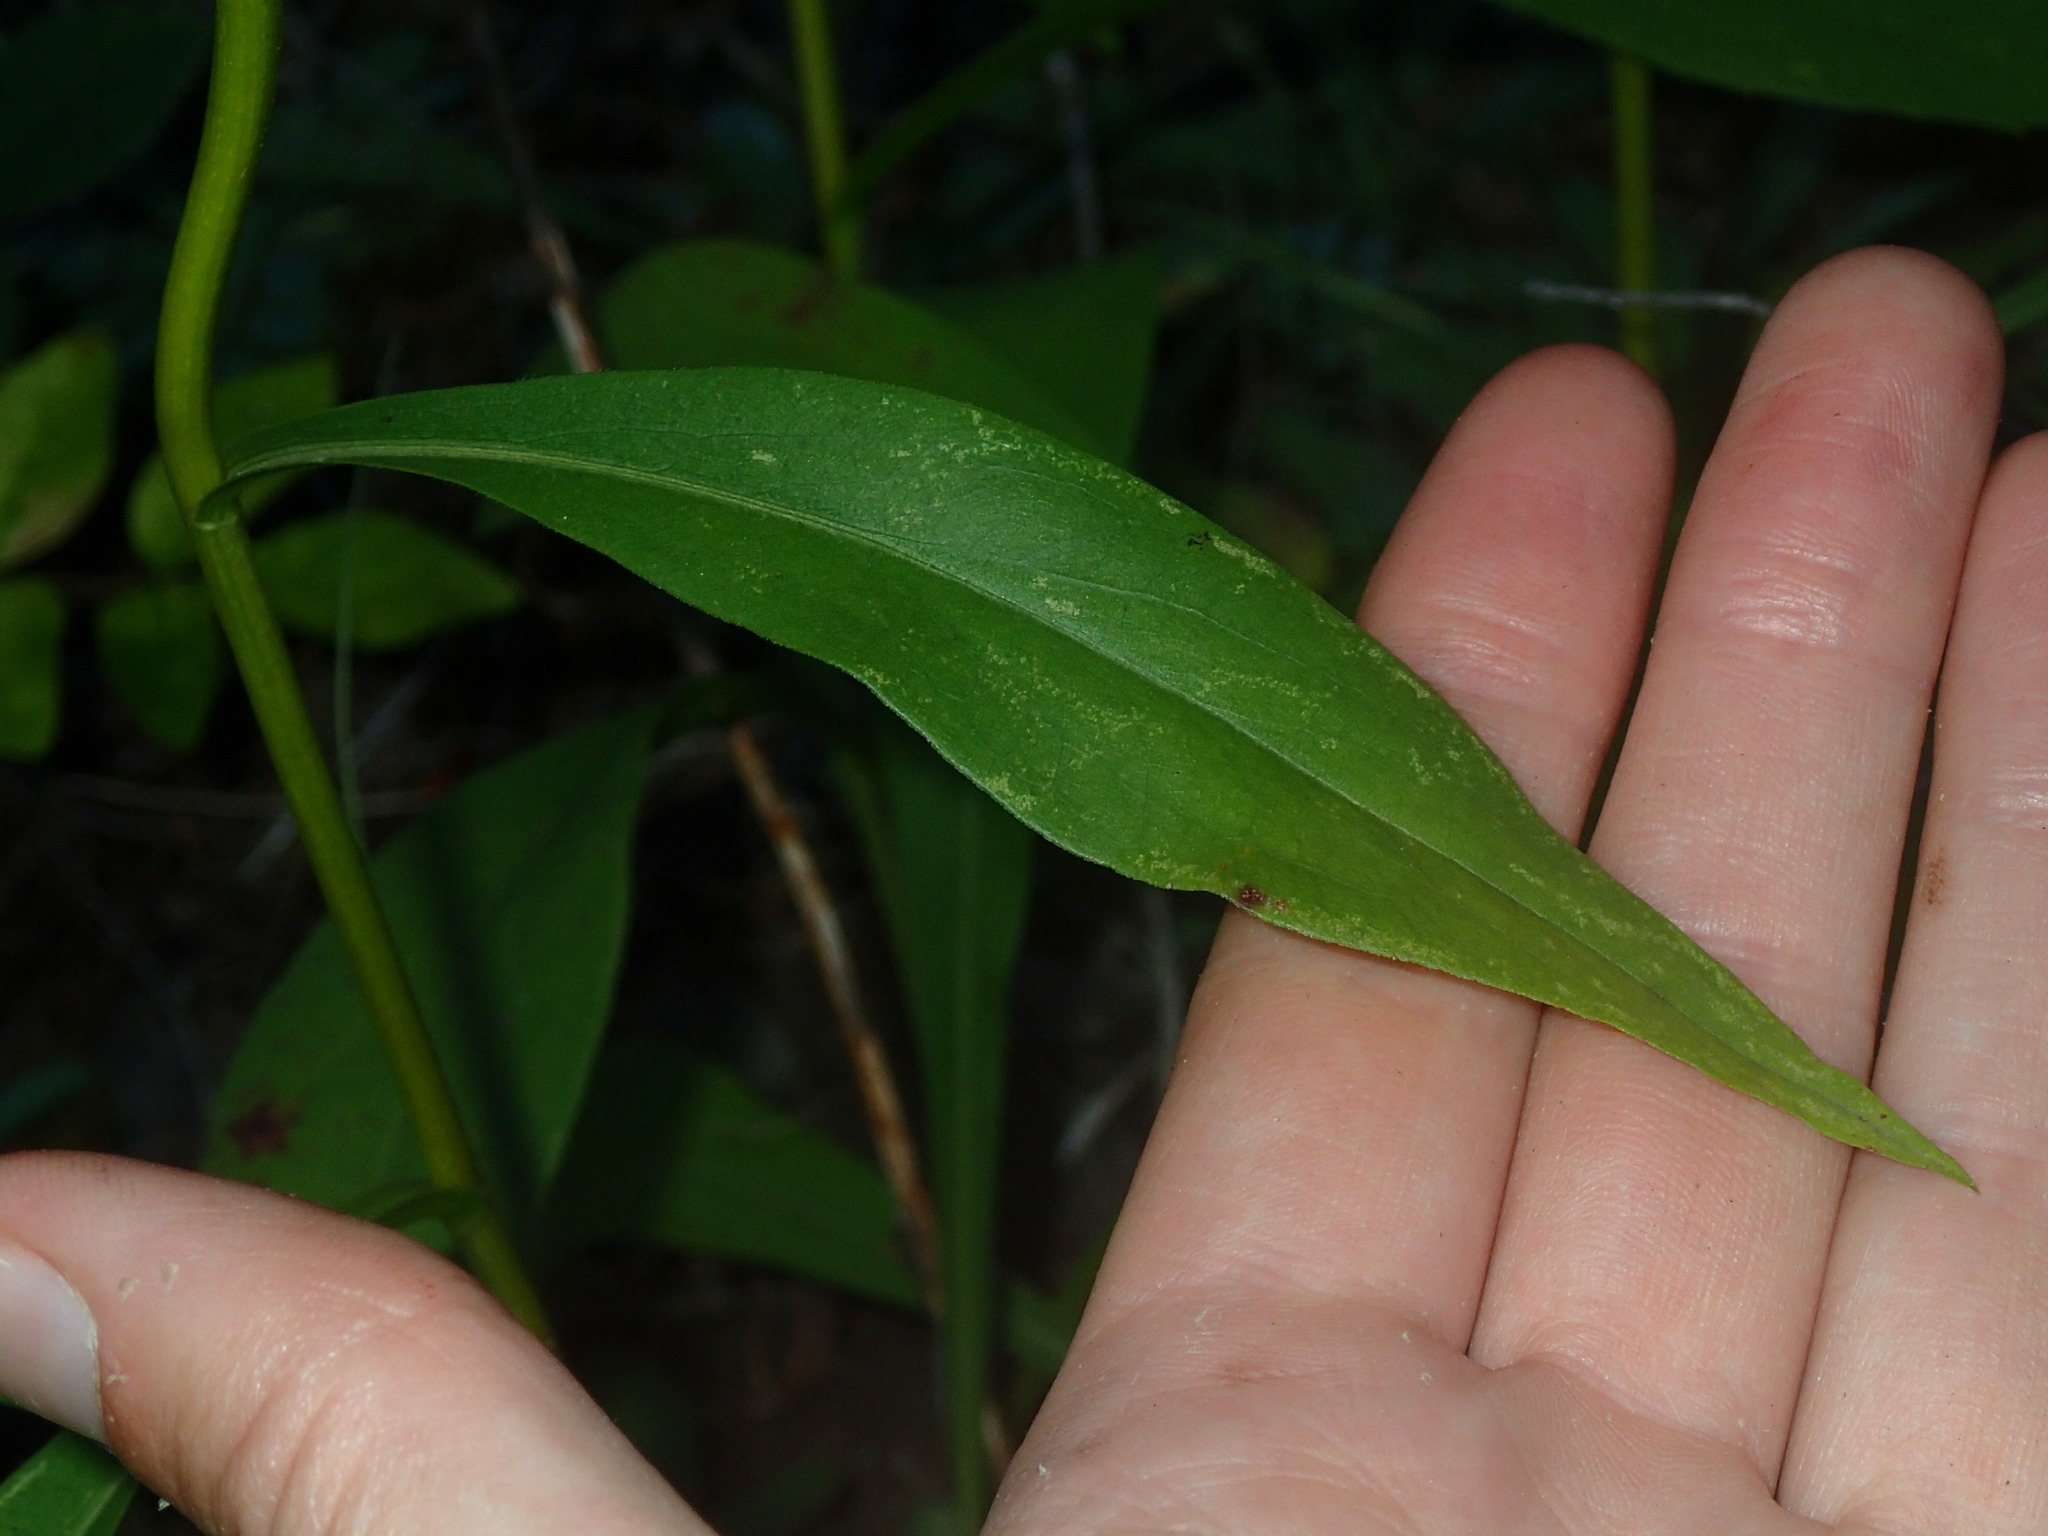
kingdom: Plantae
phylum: Tracheophyta
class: Magnoliopsida
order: Asterales
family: Asteraceae
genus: Solidago
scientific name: Solidago juncea
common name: Early goldenrod
